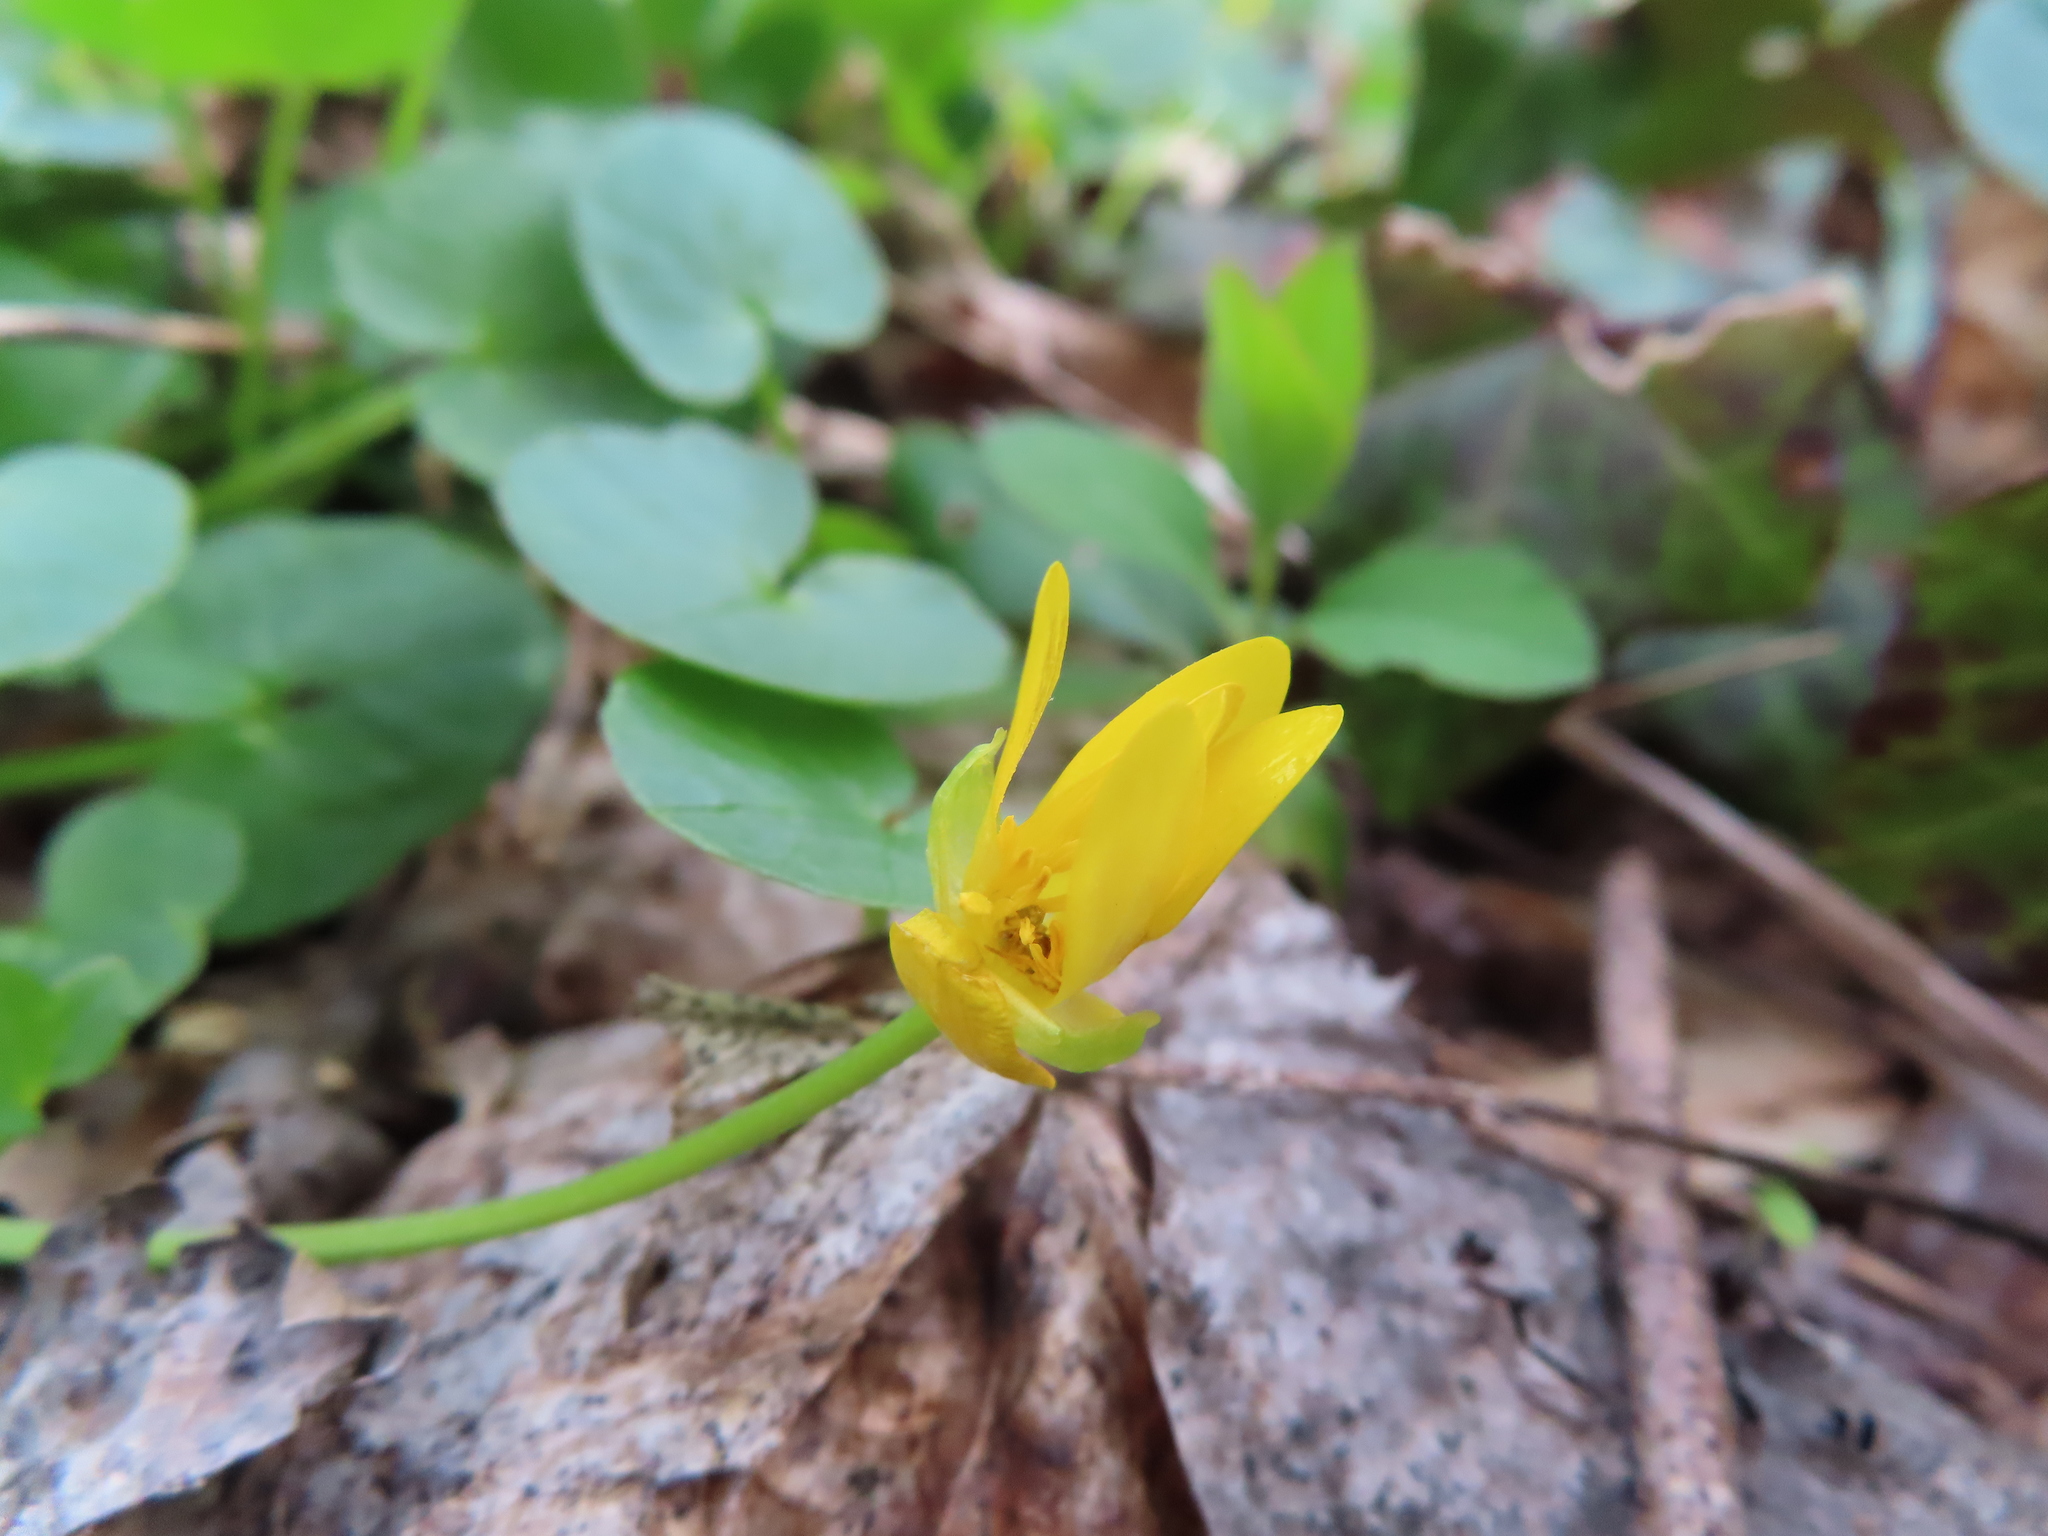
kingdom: Plantae
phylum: Tracheophyta
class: Magnoliopsida
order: Ranunculales
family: Ranunculaceae
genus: Ficaria
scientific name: Ficaria verna
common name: Lesser celandine
